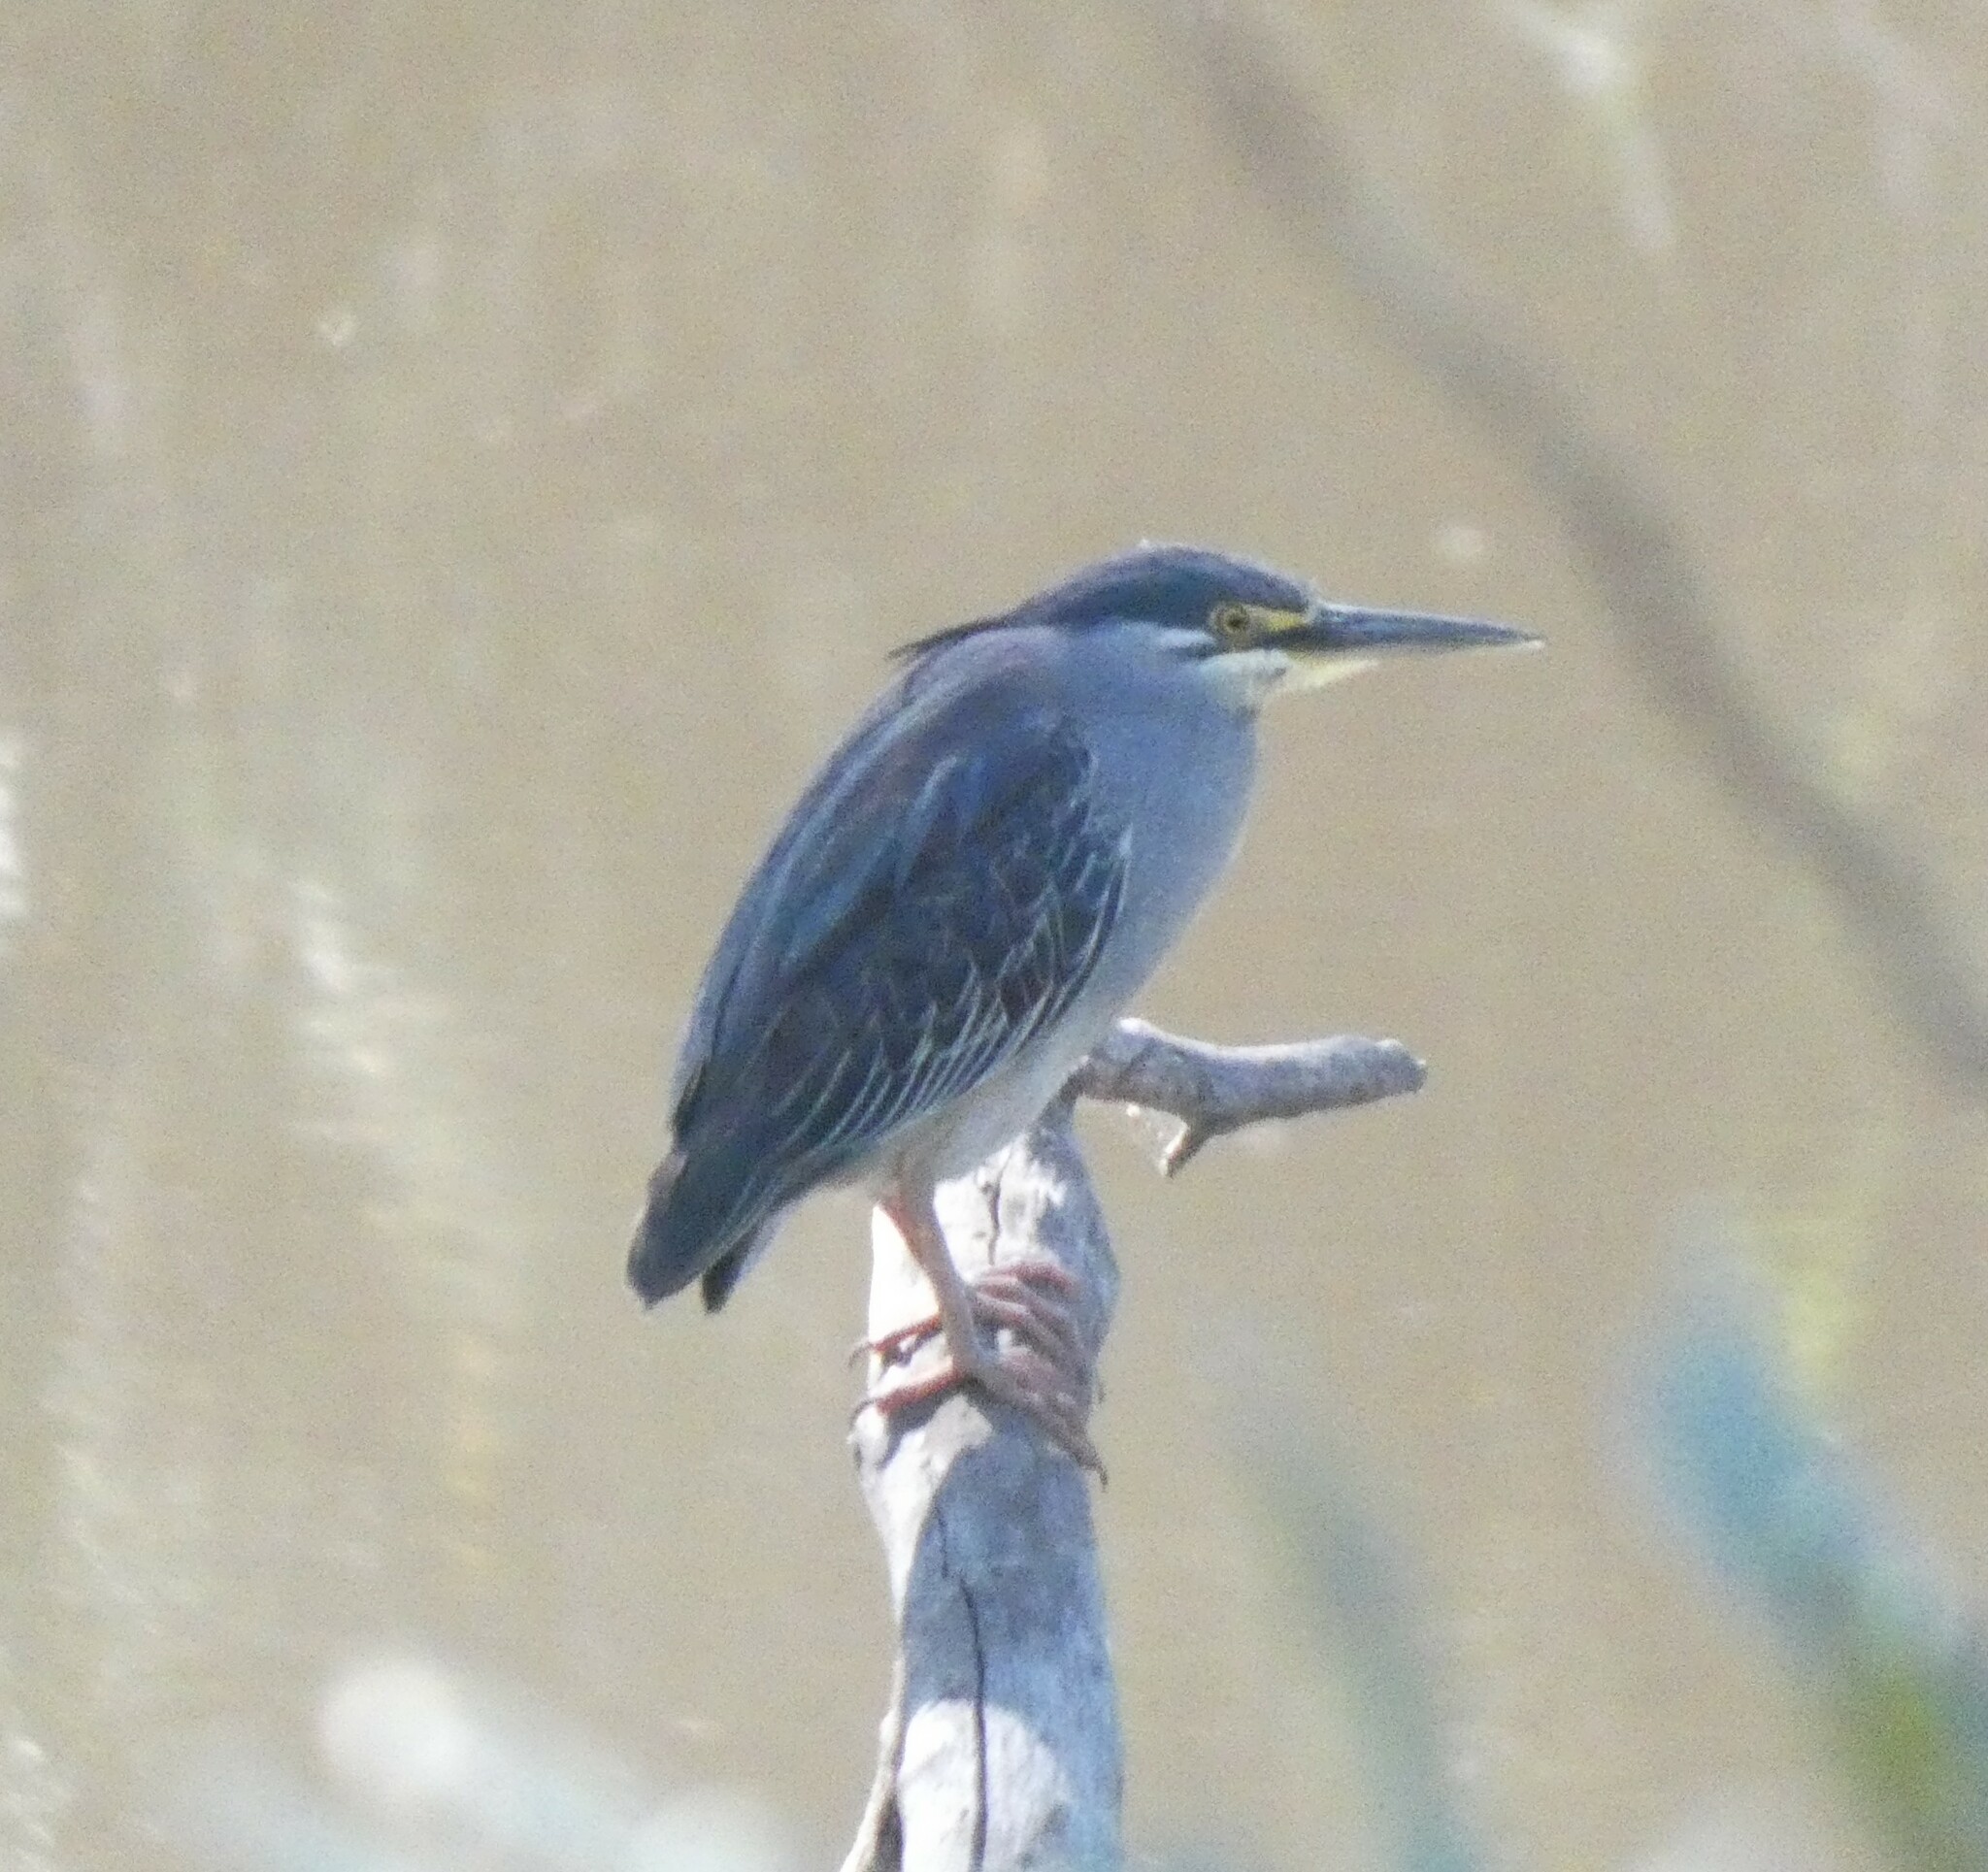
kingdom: Animalia
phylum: Chordata
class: Aves
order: Pelecaniformes
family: Ardeidae
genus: Butorides
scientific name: Butorides striata
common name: Striated heron
